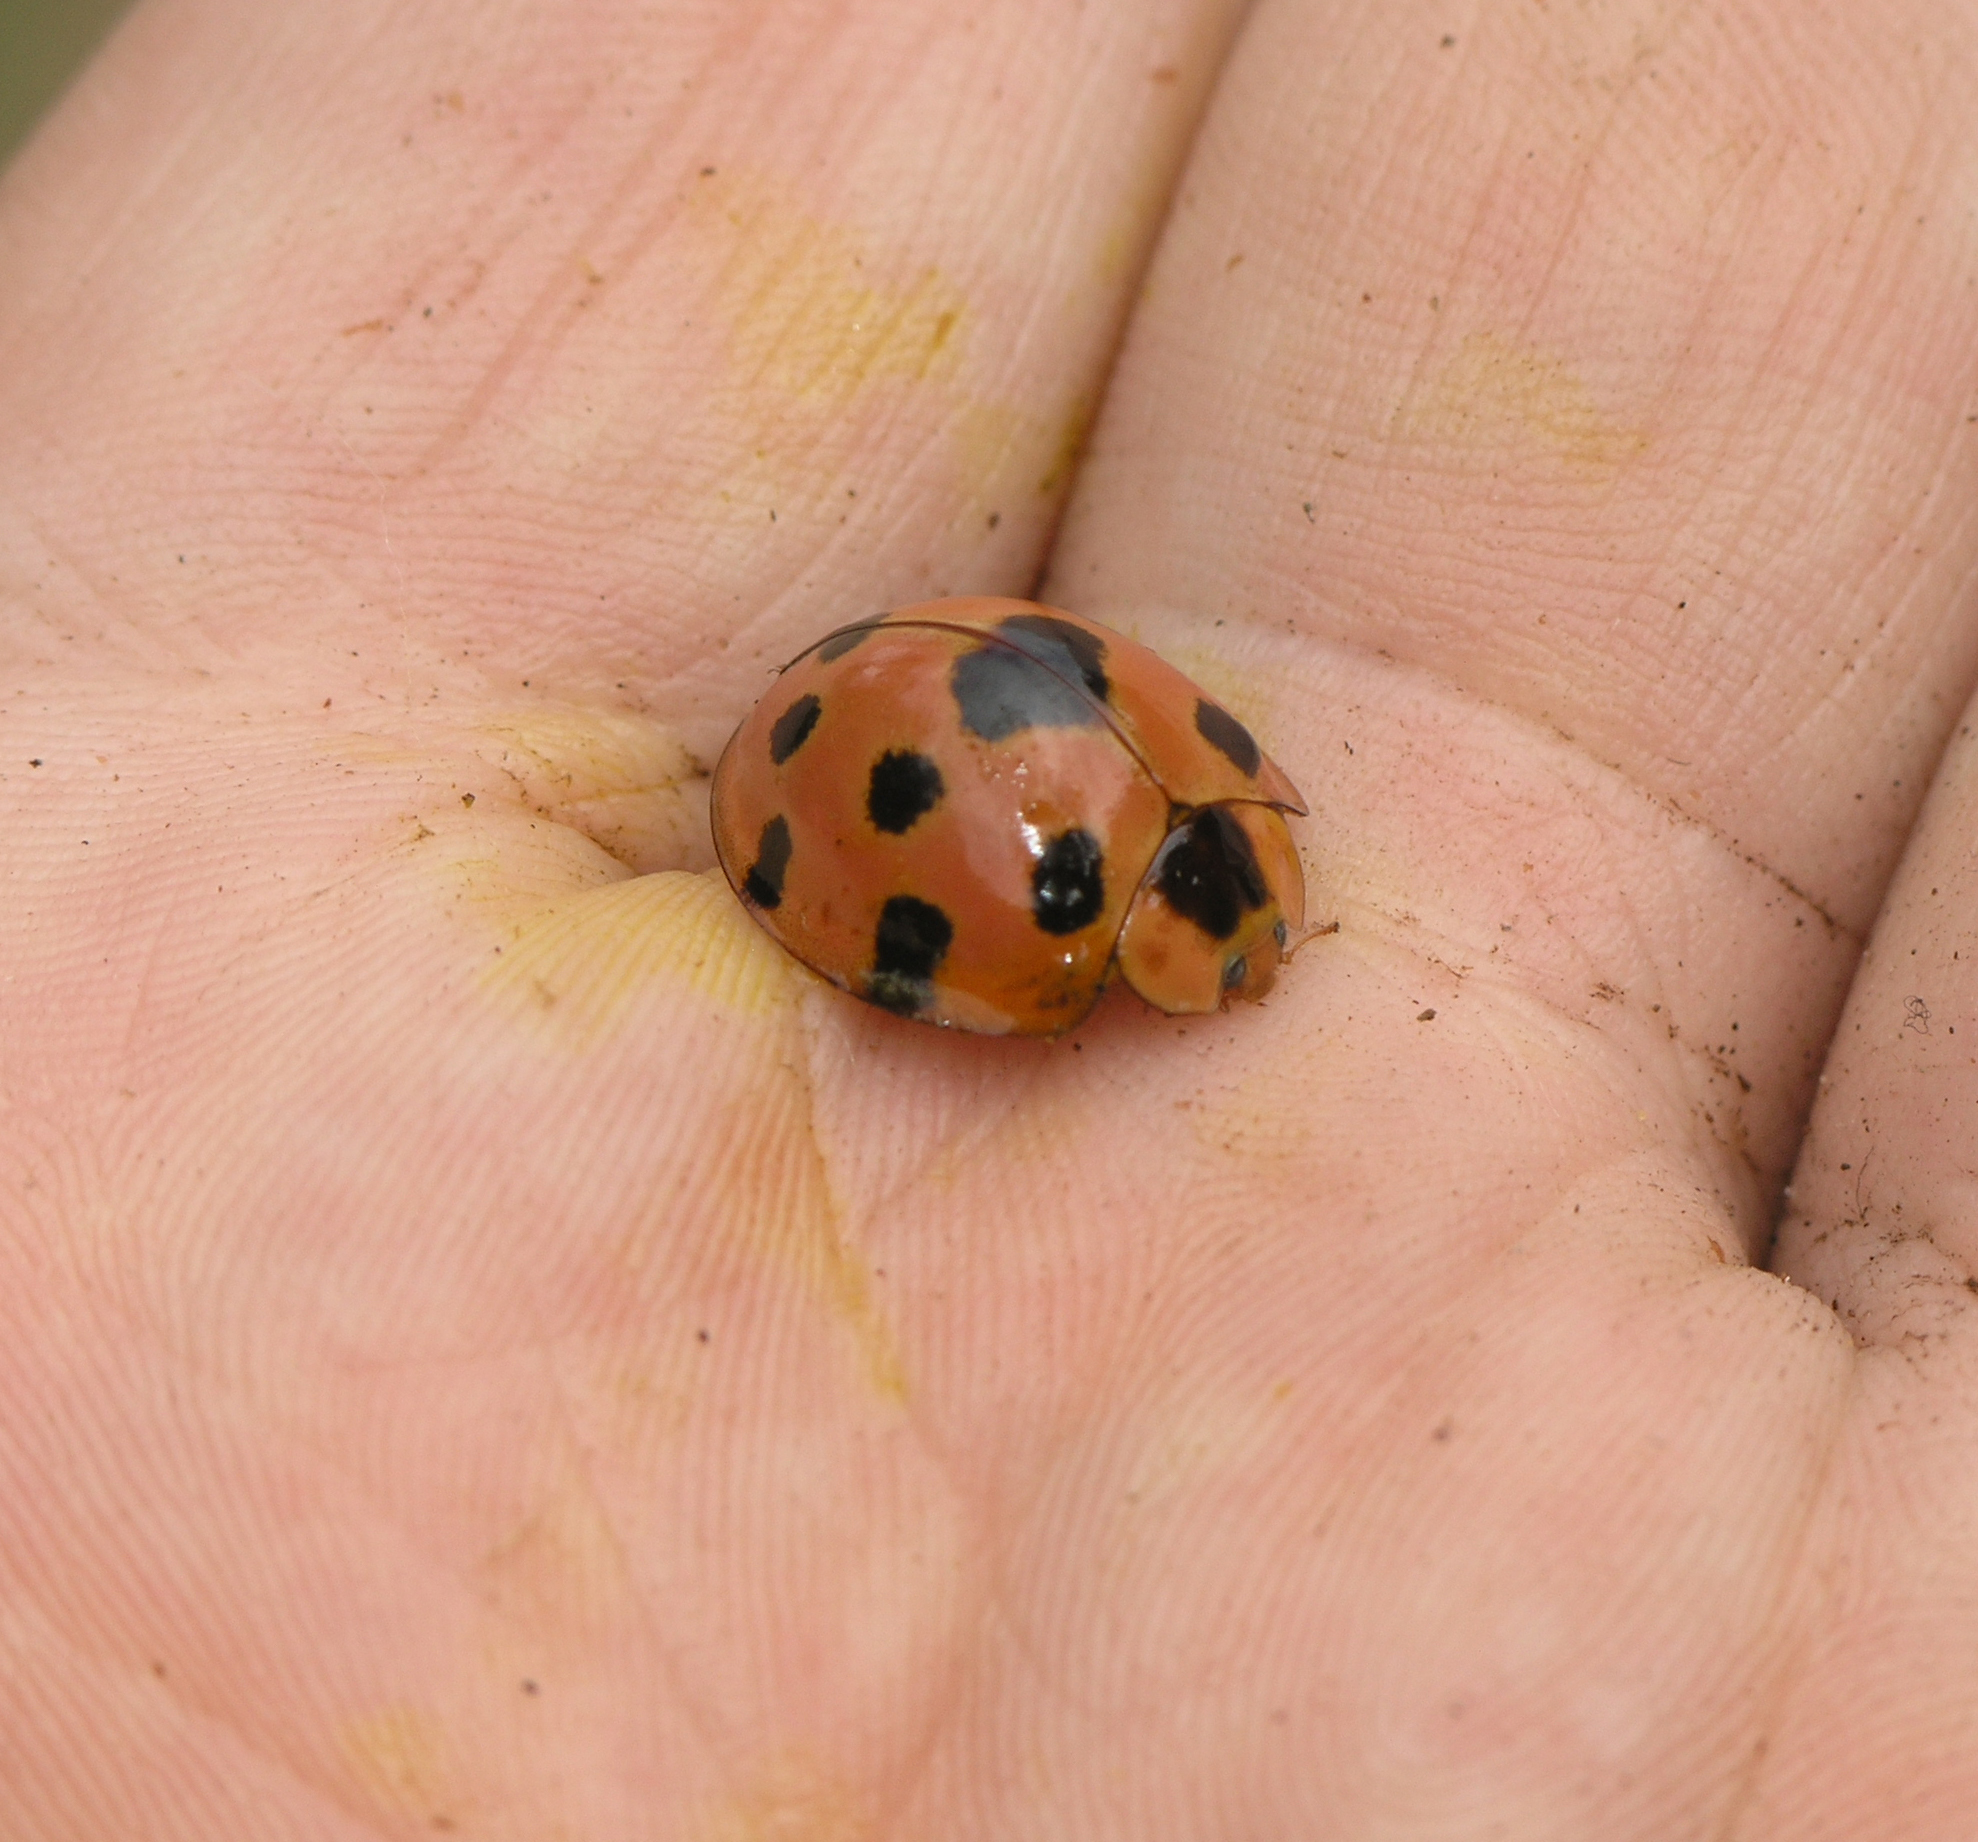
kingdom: Animalia
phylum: Arthropoda
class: Insecta
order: Coleoptera
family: Coccinellidae
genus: Synonycha
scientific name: Synonycha grandis
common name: Lady beetle
